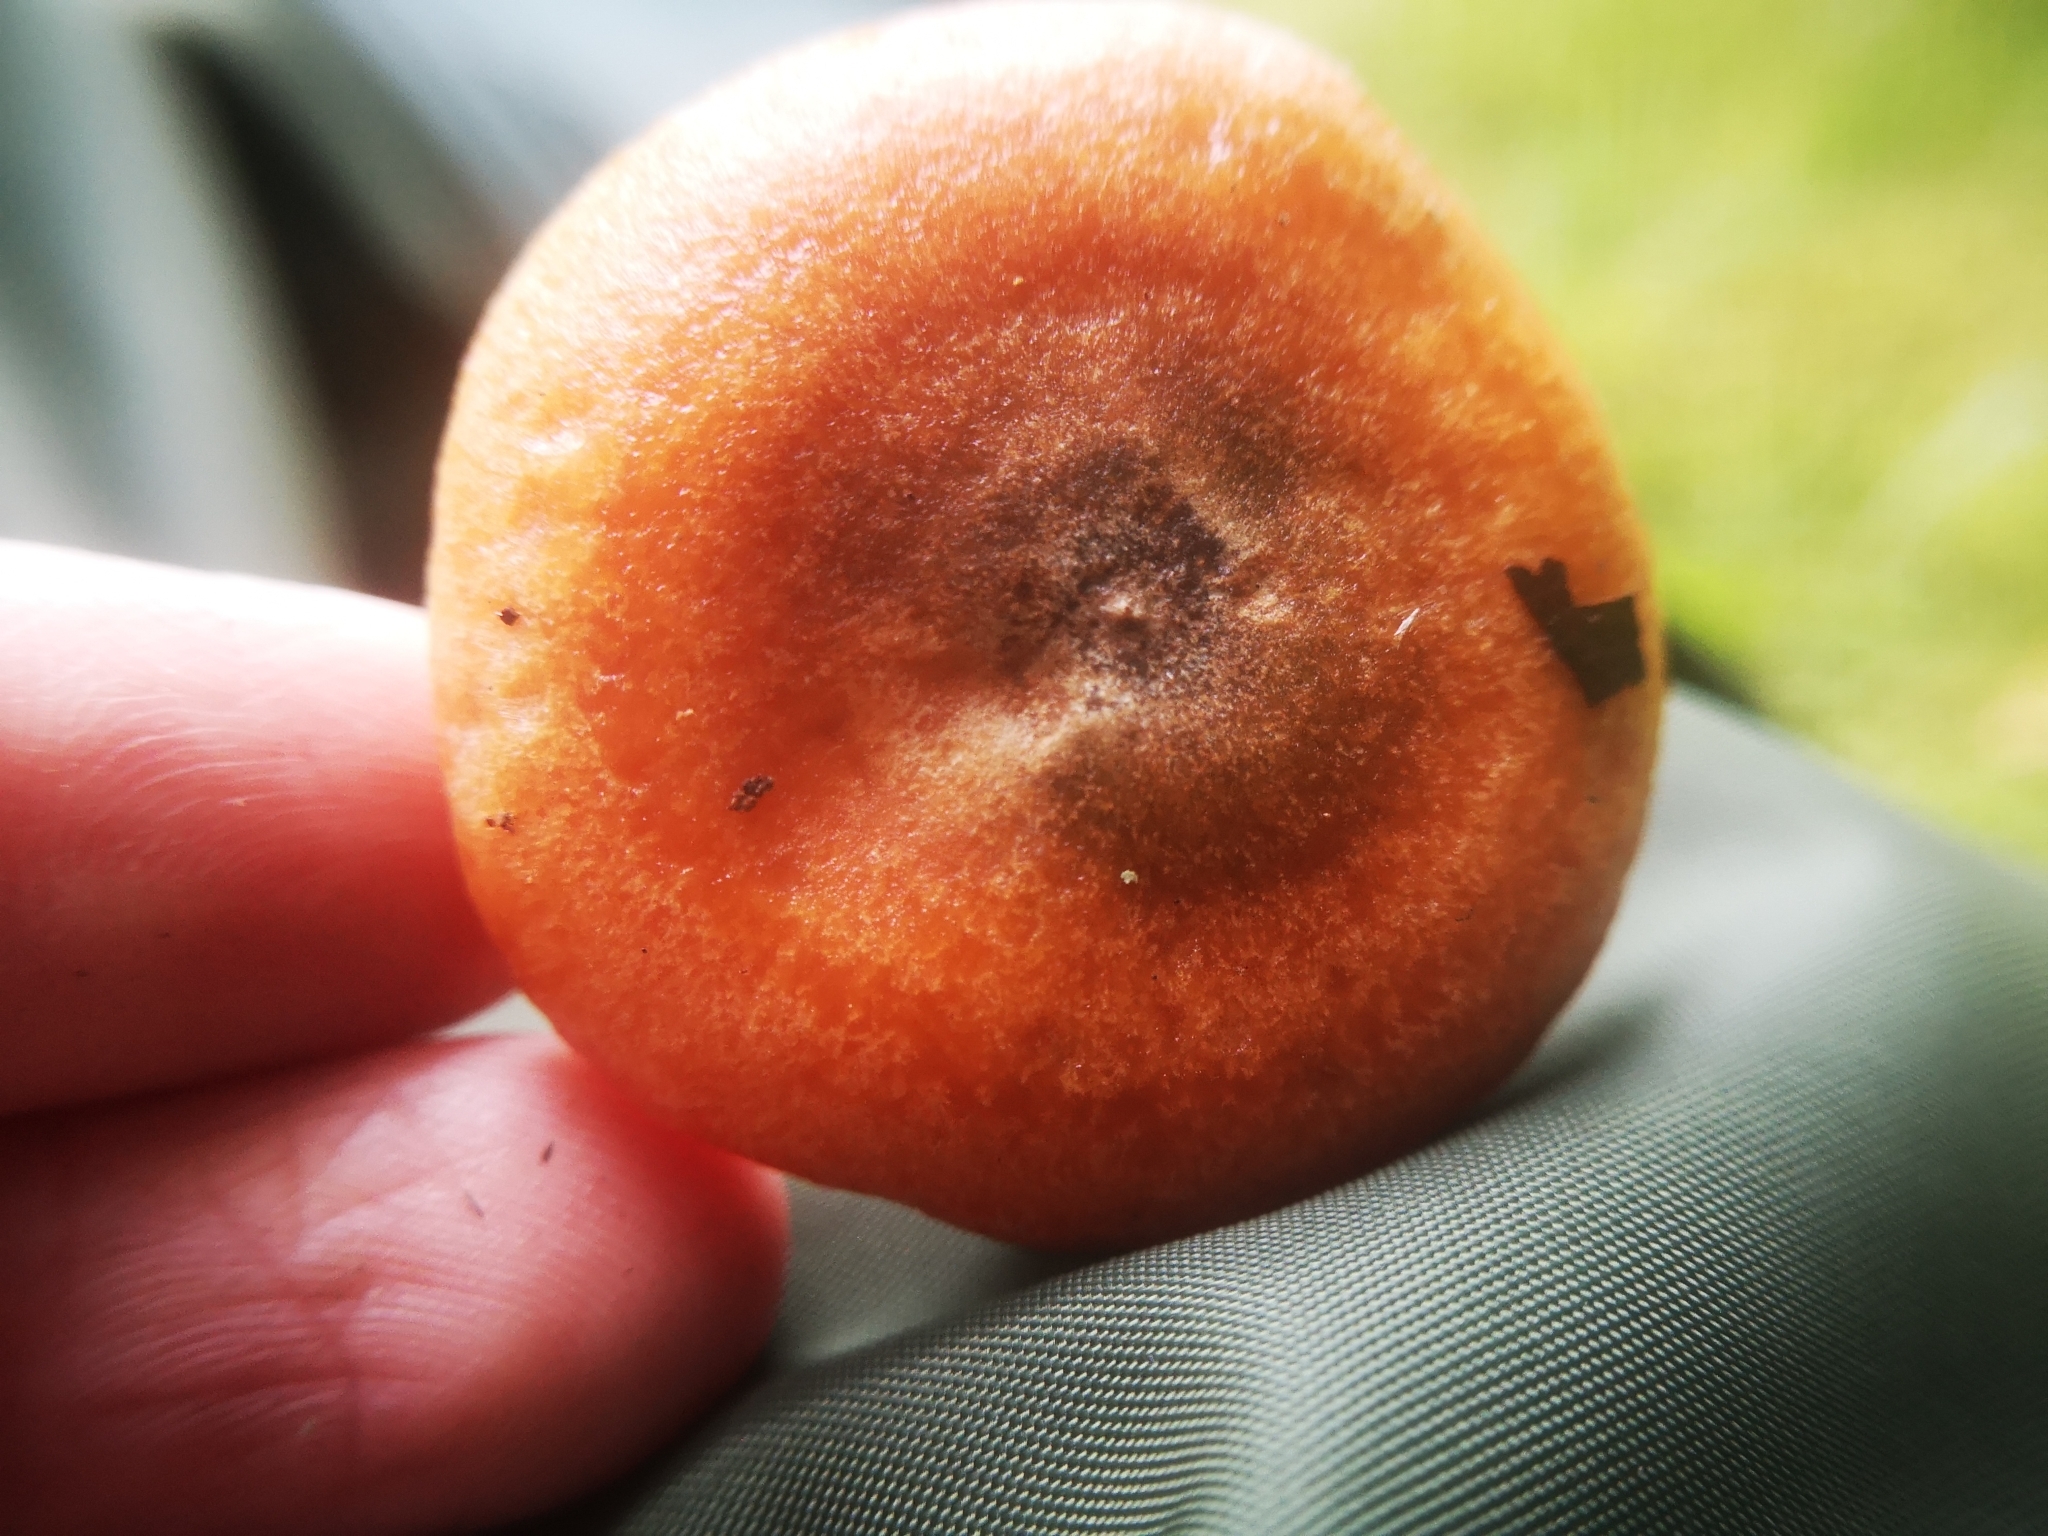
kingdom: Fungi
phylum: Basidiomycota
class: Agaricomycetes
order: Russulales
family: Russulaceae
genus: Lactarius
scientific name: Lactarius deterrimus
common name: False saffron milkcap
